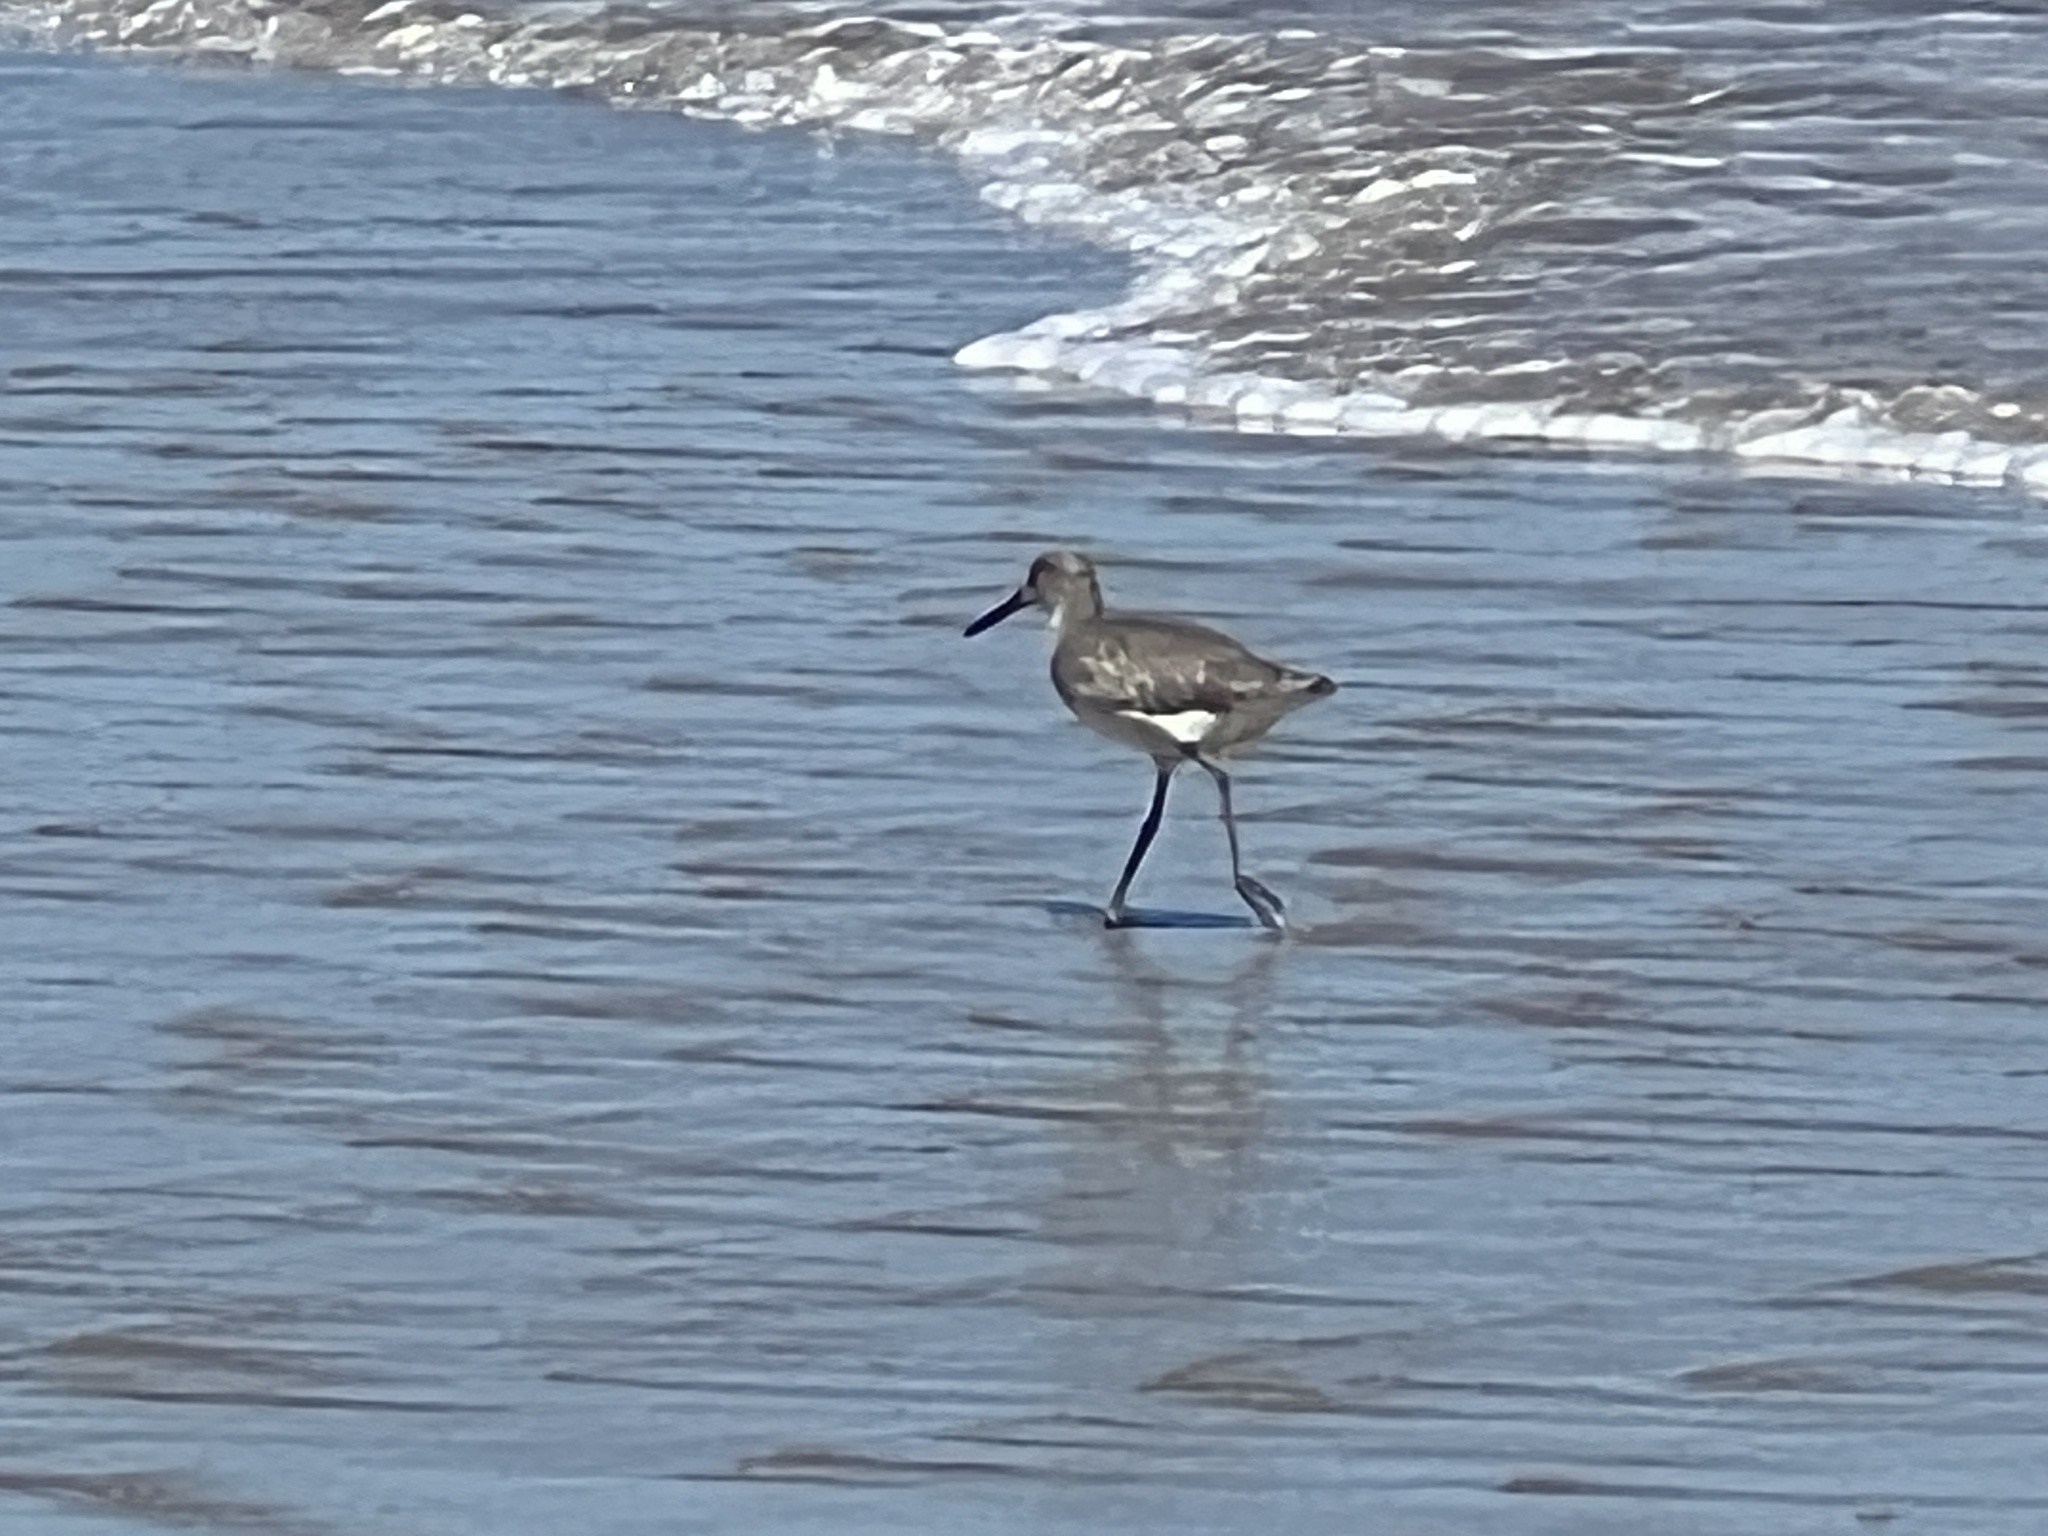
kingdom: Animalia
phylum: Chordata
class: Aves
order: Charadriiformes
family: Scolopacidae
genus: Tringa
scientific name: Tringa semipalmata
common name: Willet
